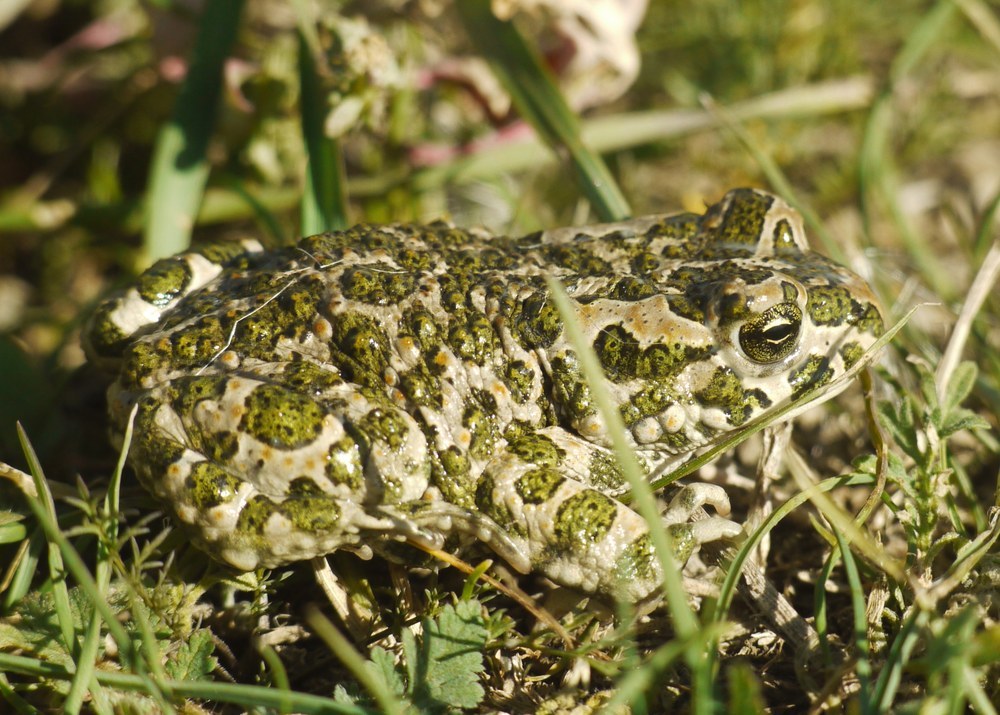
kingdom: Animalia
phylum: Chordata
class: Amphibia
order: Anura
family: Bufonidae
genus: Bufotes
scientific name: Bufotes viridis
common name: European green toad
